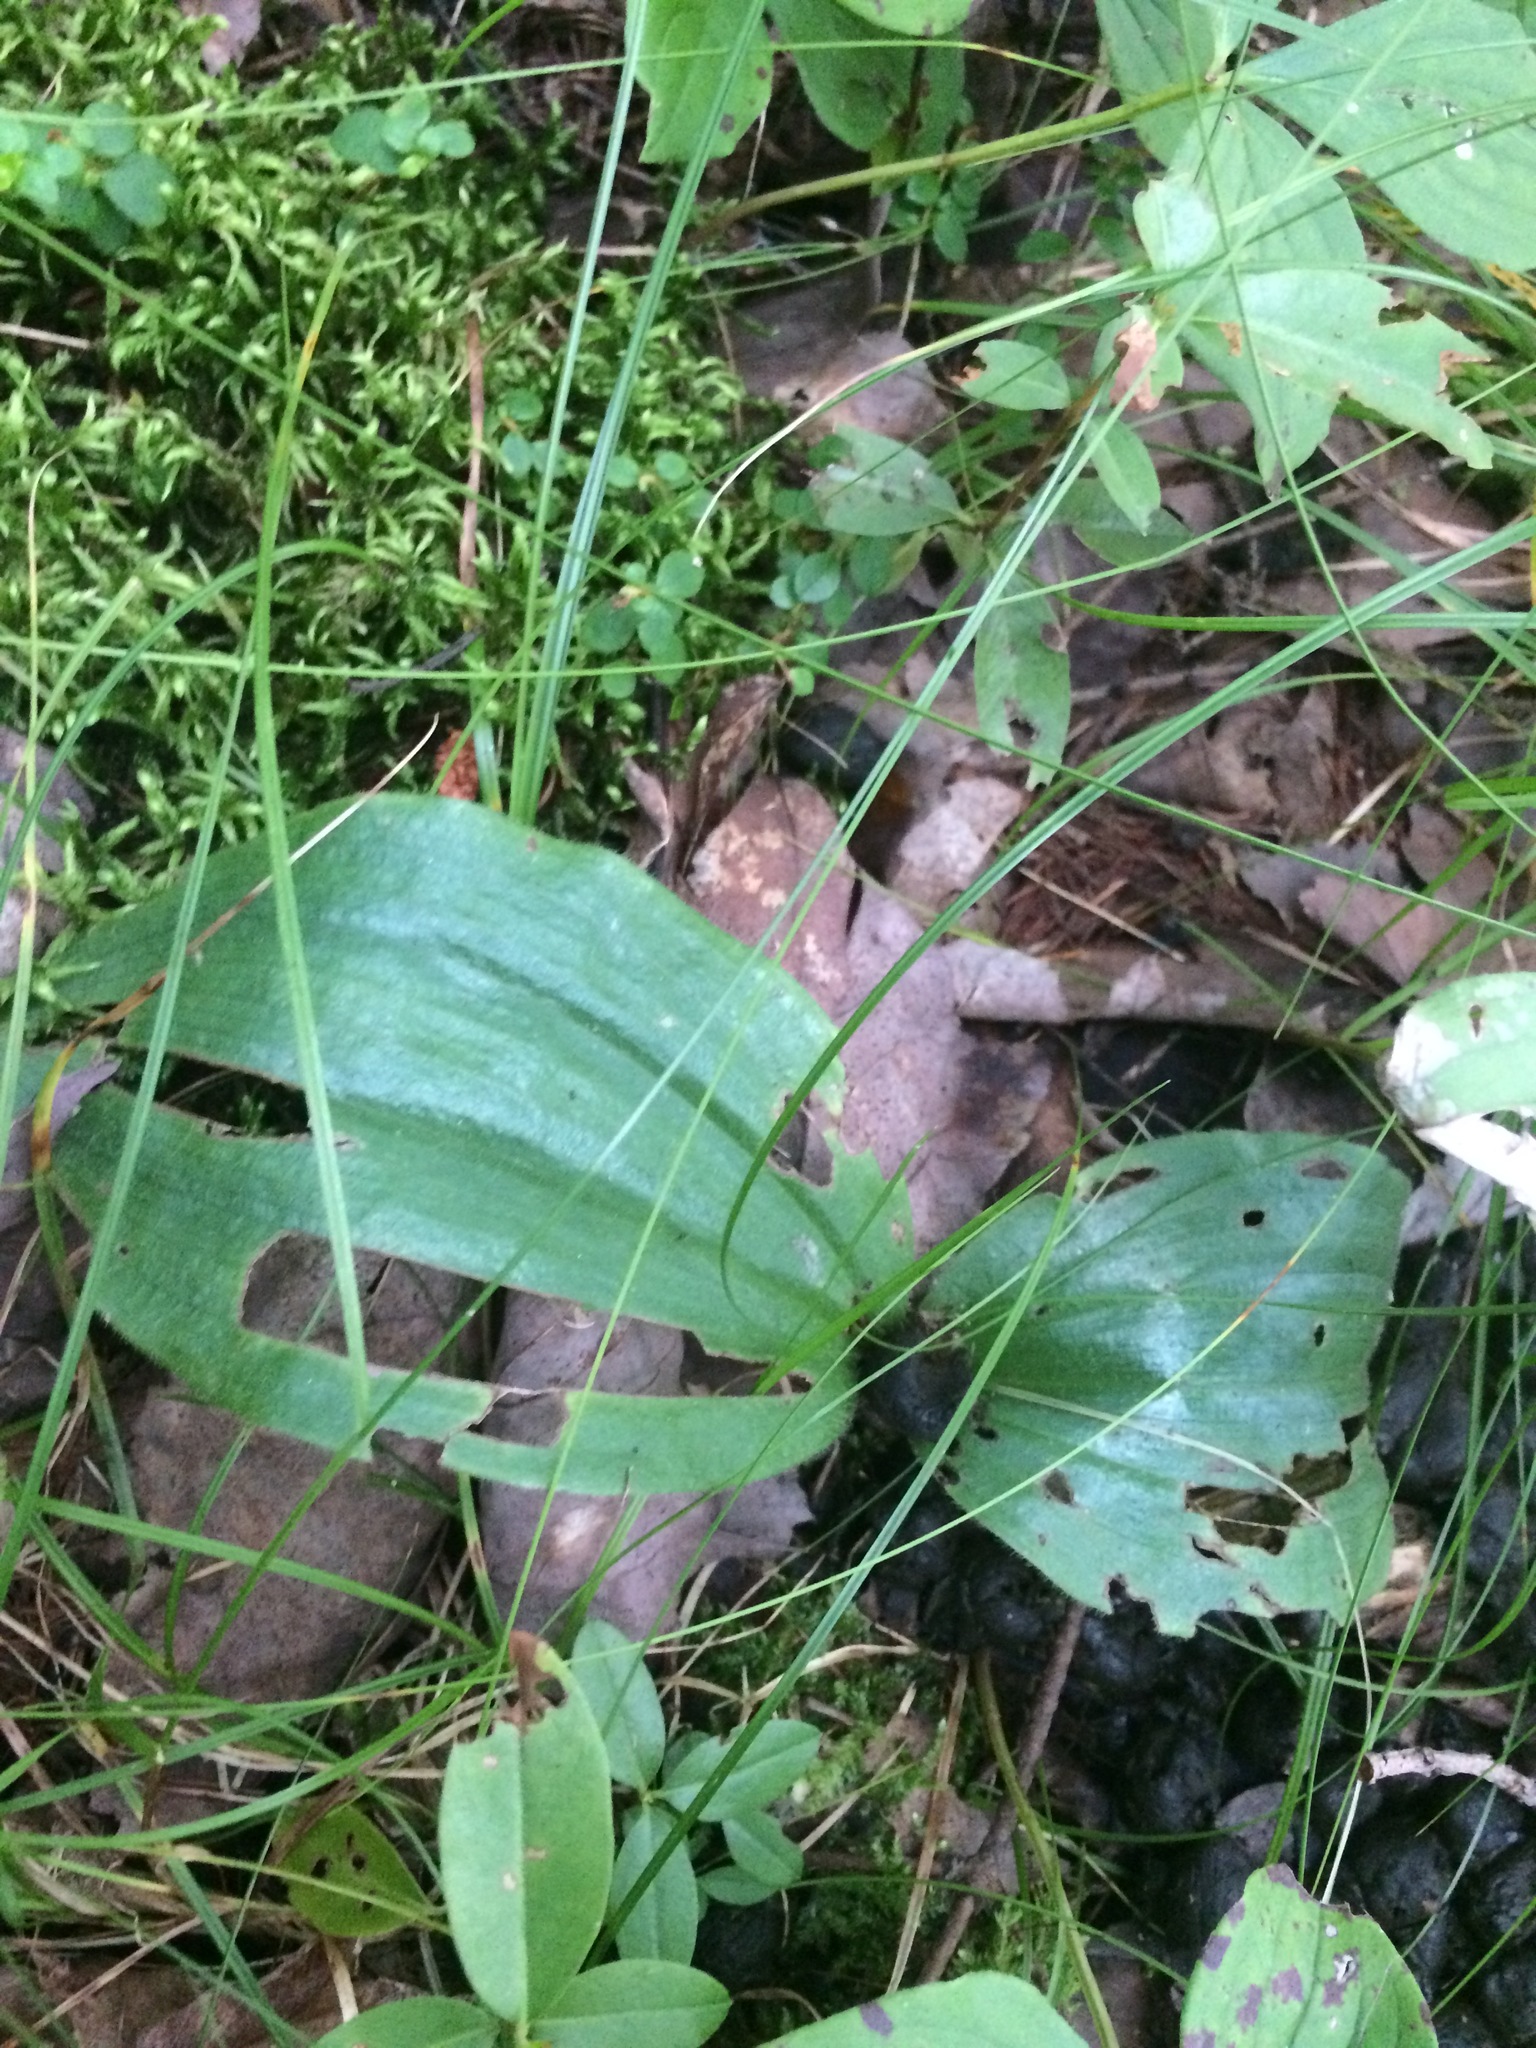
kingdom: Plantae
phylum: Tracheophyta
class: Liliopsida
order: Asparagales
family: Orchidaceae
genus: Cypripedium
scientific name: Cypripedium acaule
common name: Pink lady's-slipper
